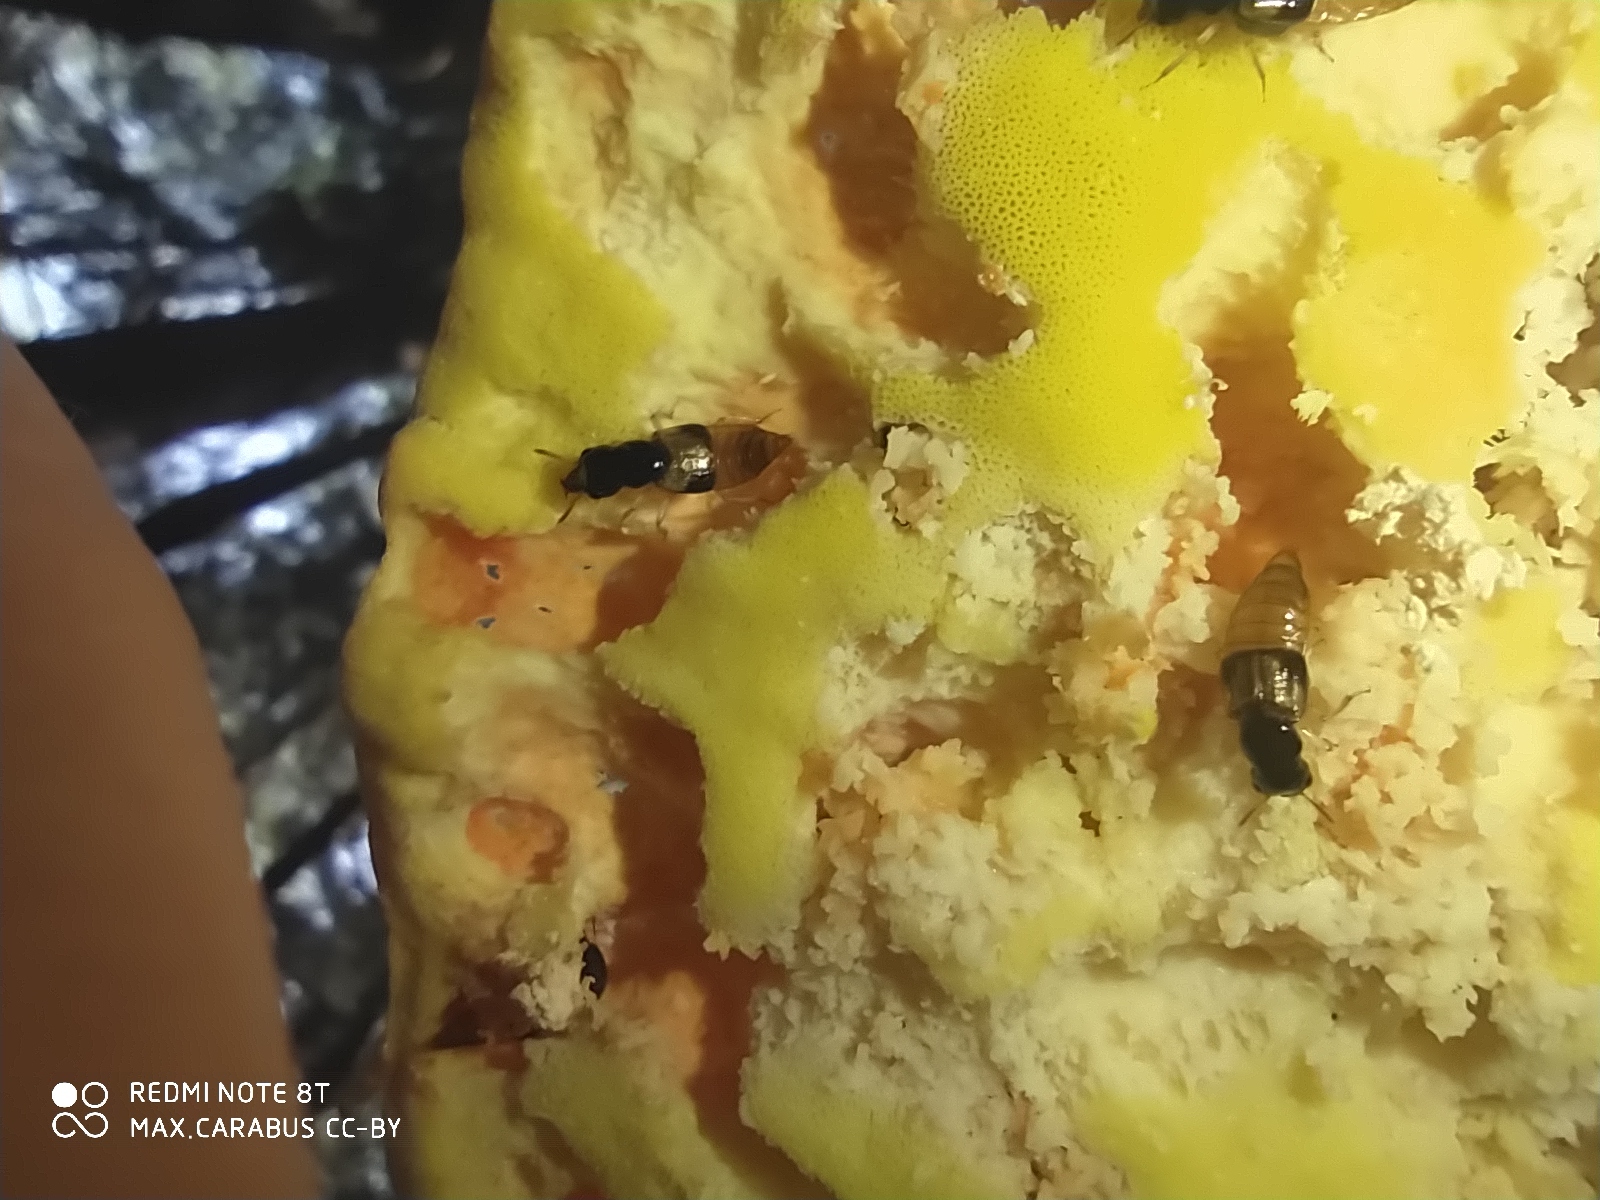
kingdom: Animalia
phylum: Arthropoda
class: Insecta
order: Coleoptera
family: Staphylinidae
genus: Oxyporus
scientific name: Oxyporus maxillosus
